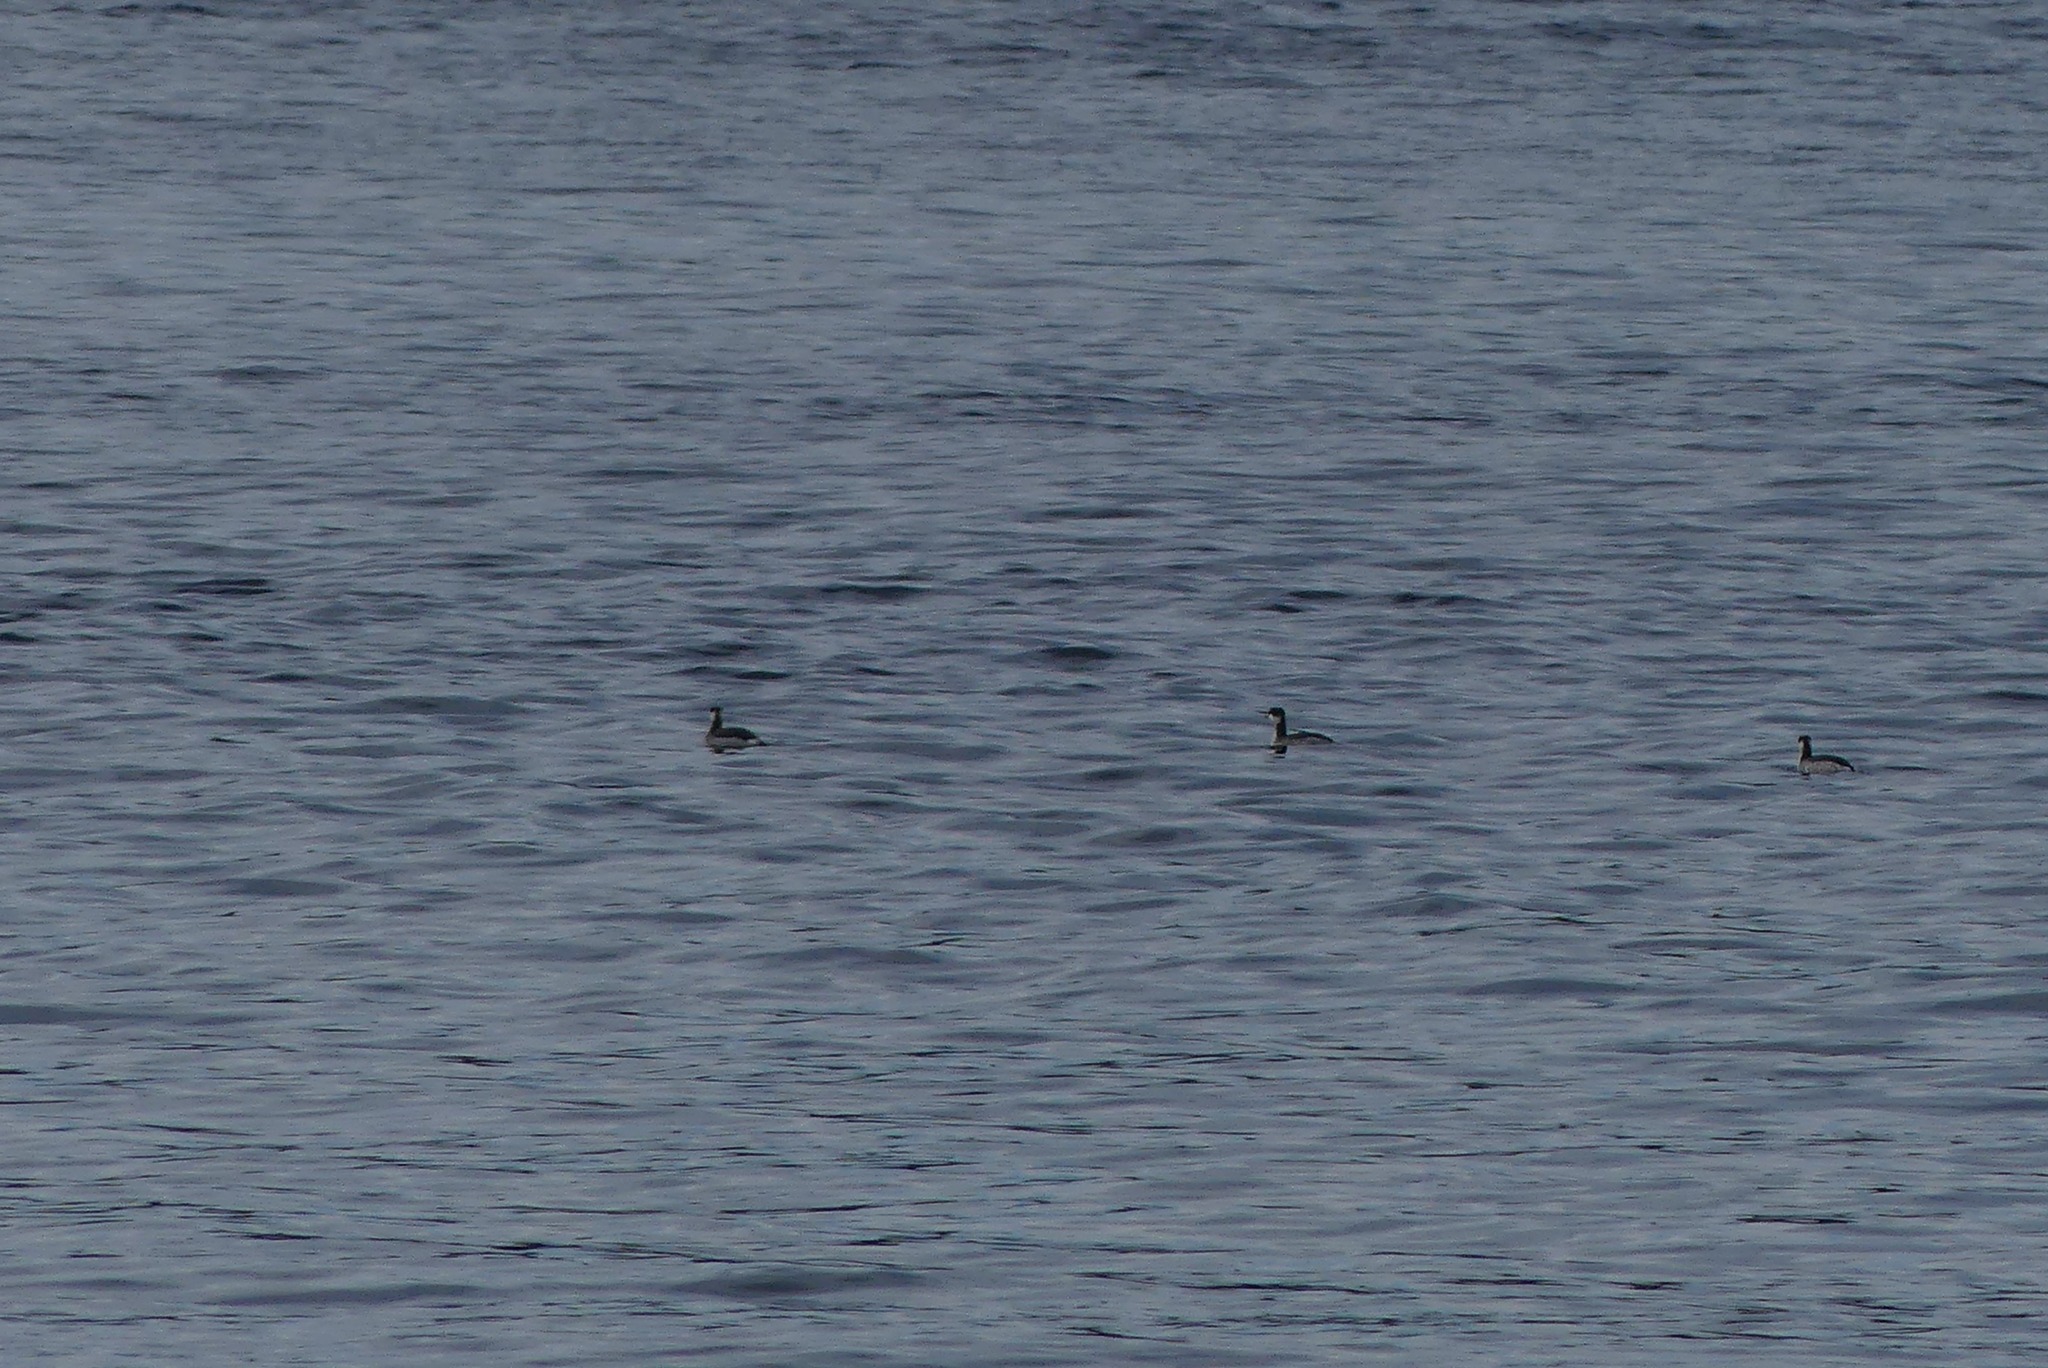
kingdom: Animalia
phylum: Chordata
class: Aves
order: Podicipediformes
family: Podicipedidae
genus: Podiceps
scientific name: Podiceps auritus
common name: Horned grebe
